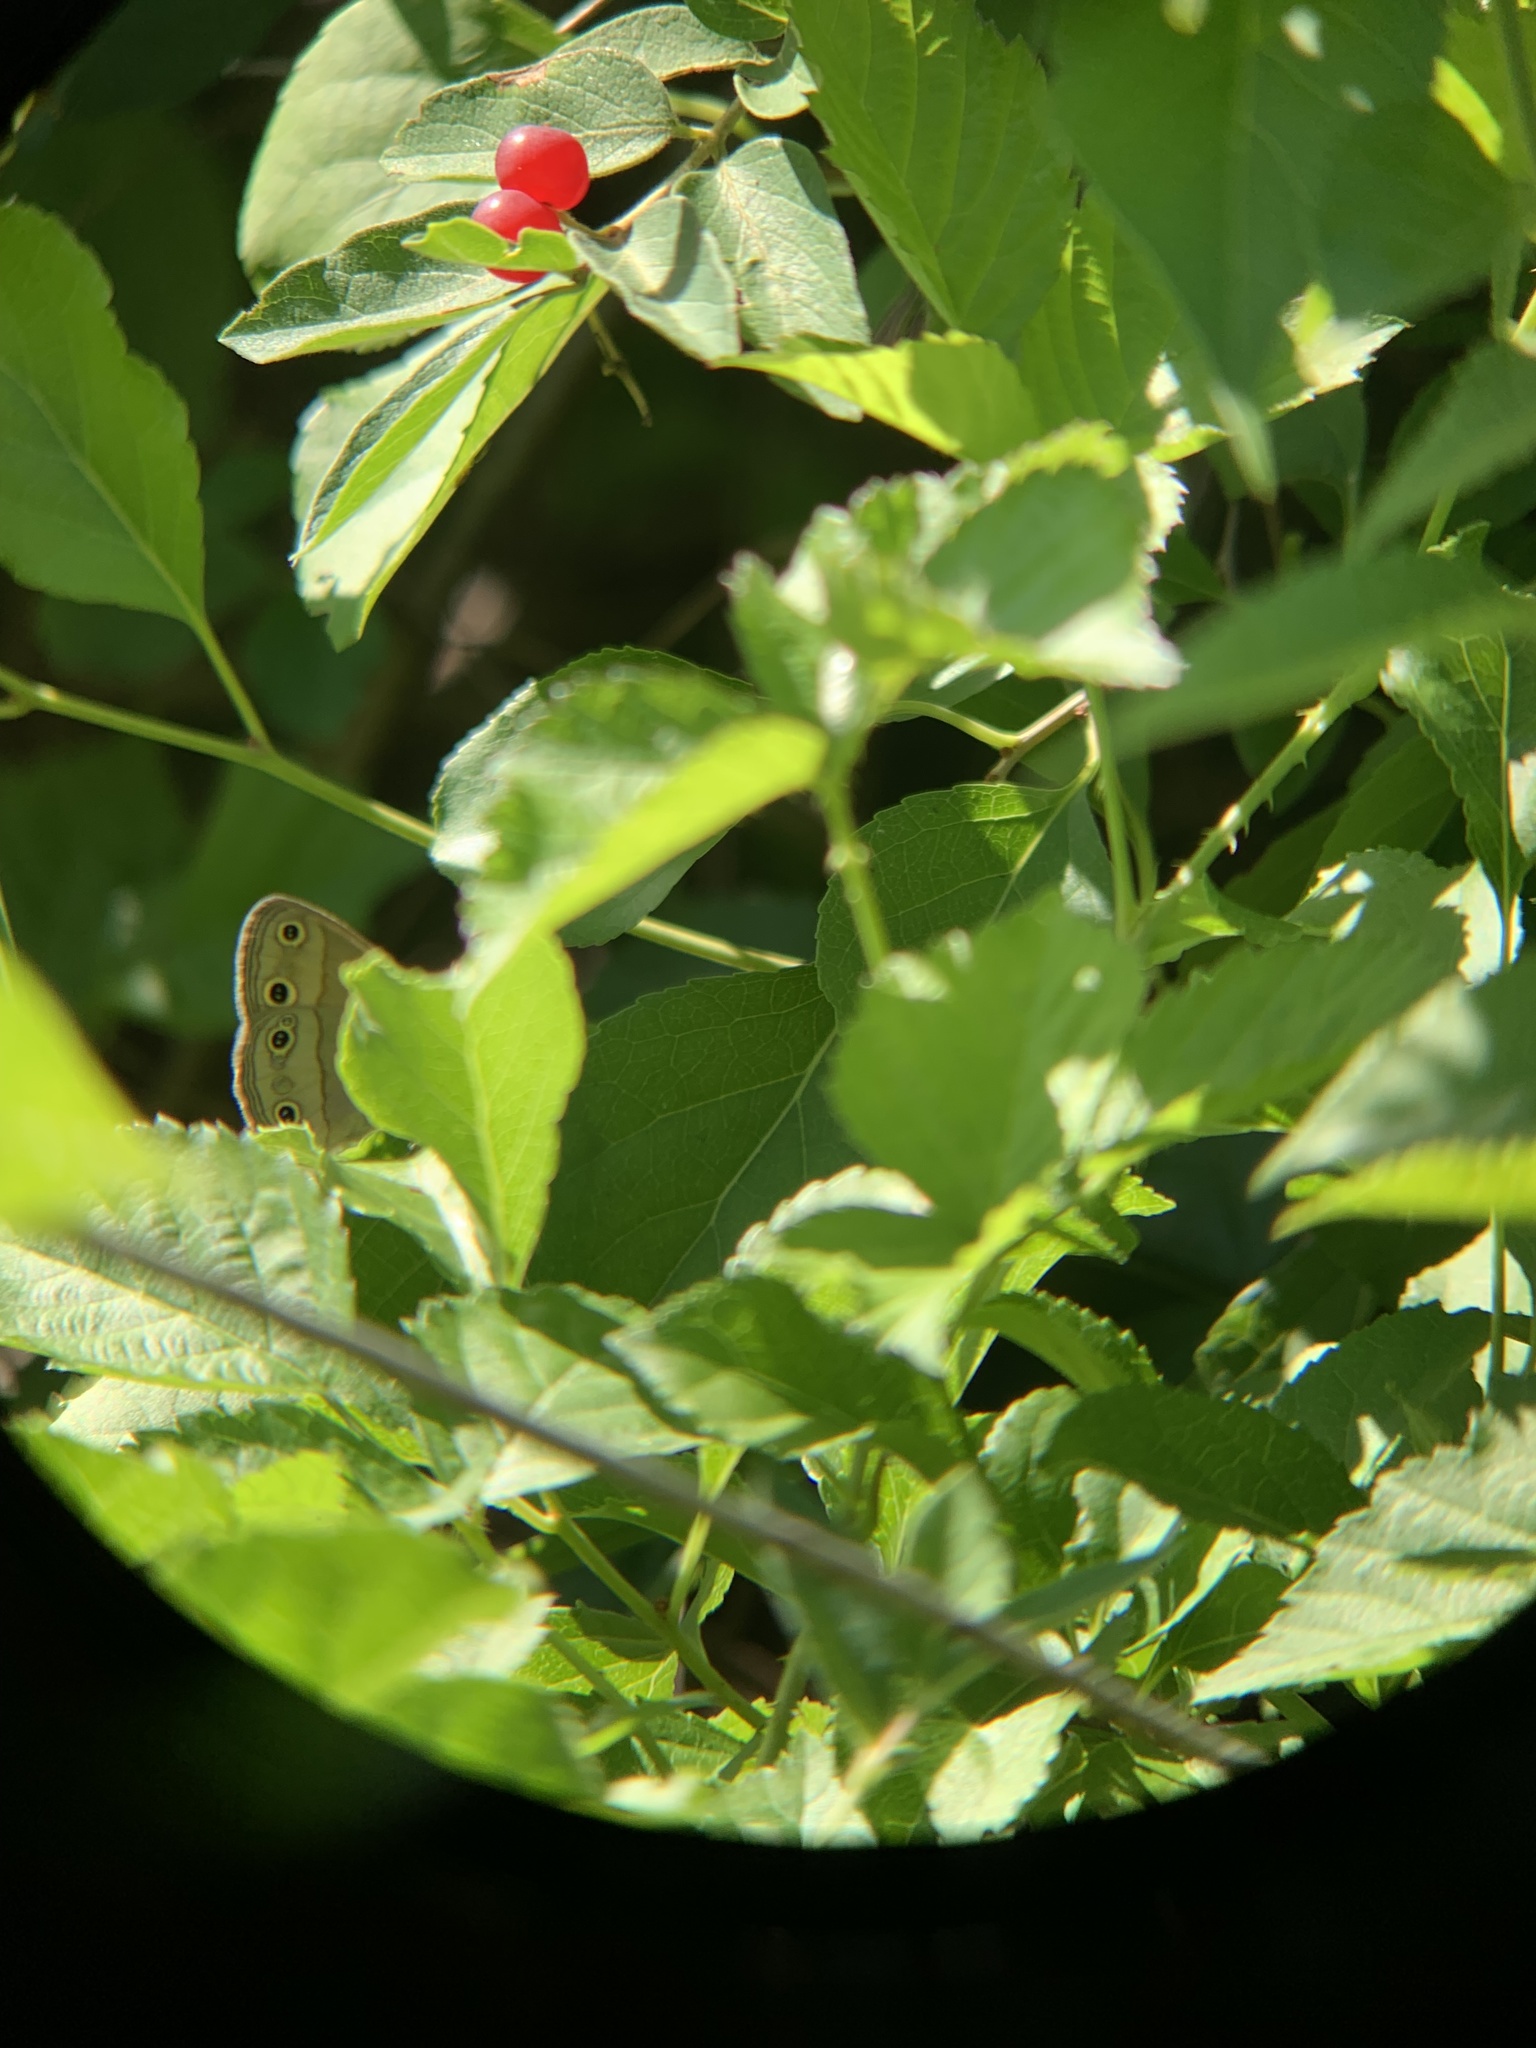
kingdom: Animalia
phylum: Arthropoda
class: Insecta
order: Lepidoptera
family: Nymphalidae
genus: Euptychia
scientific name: Euptychia cymela
